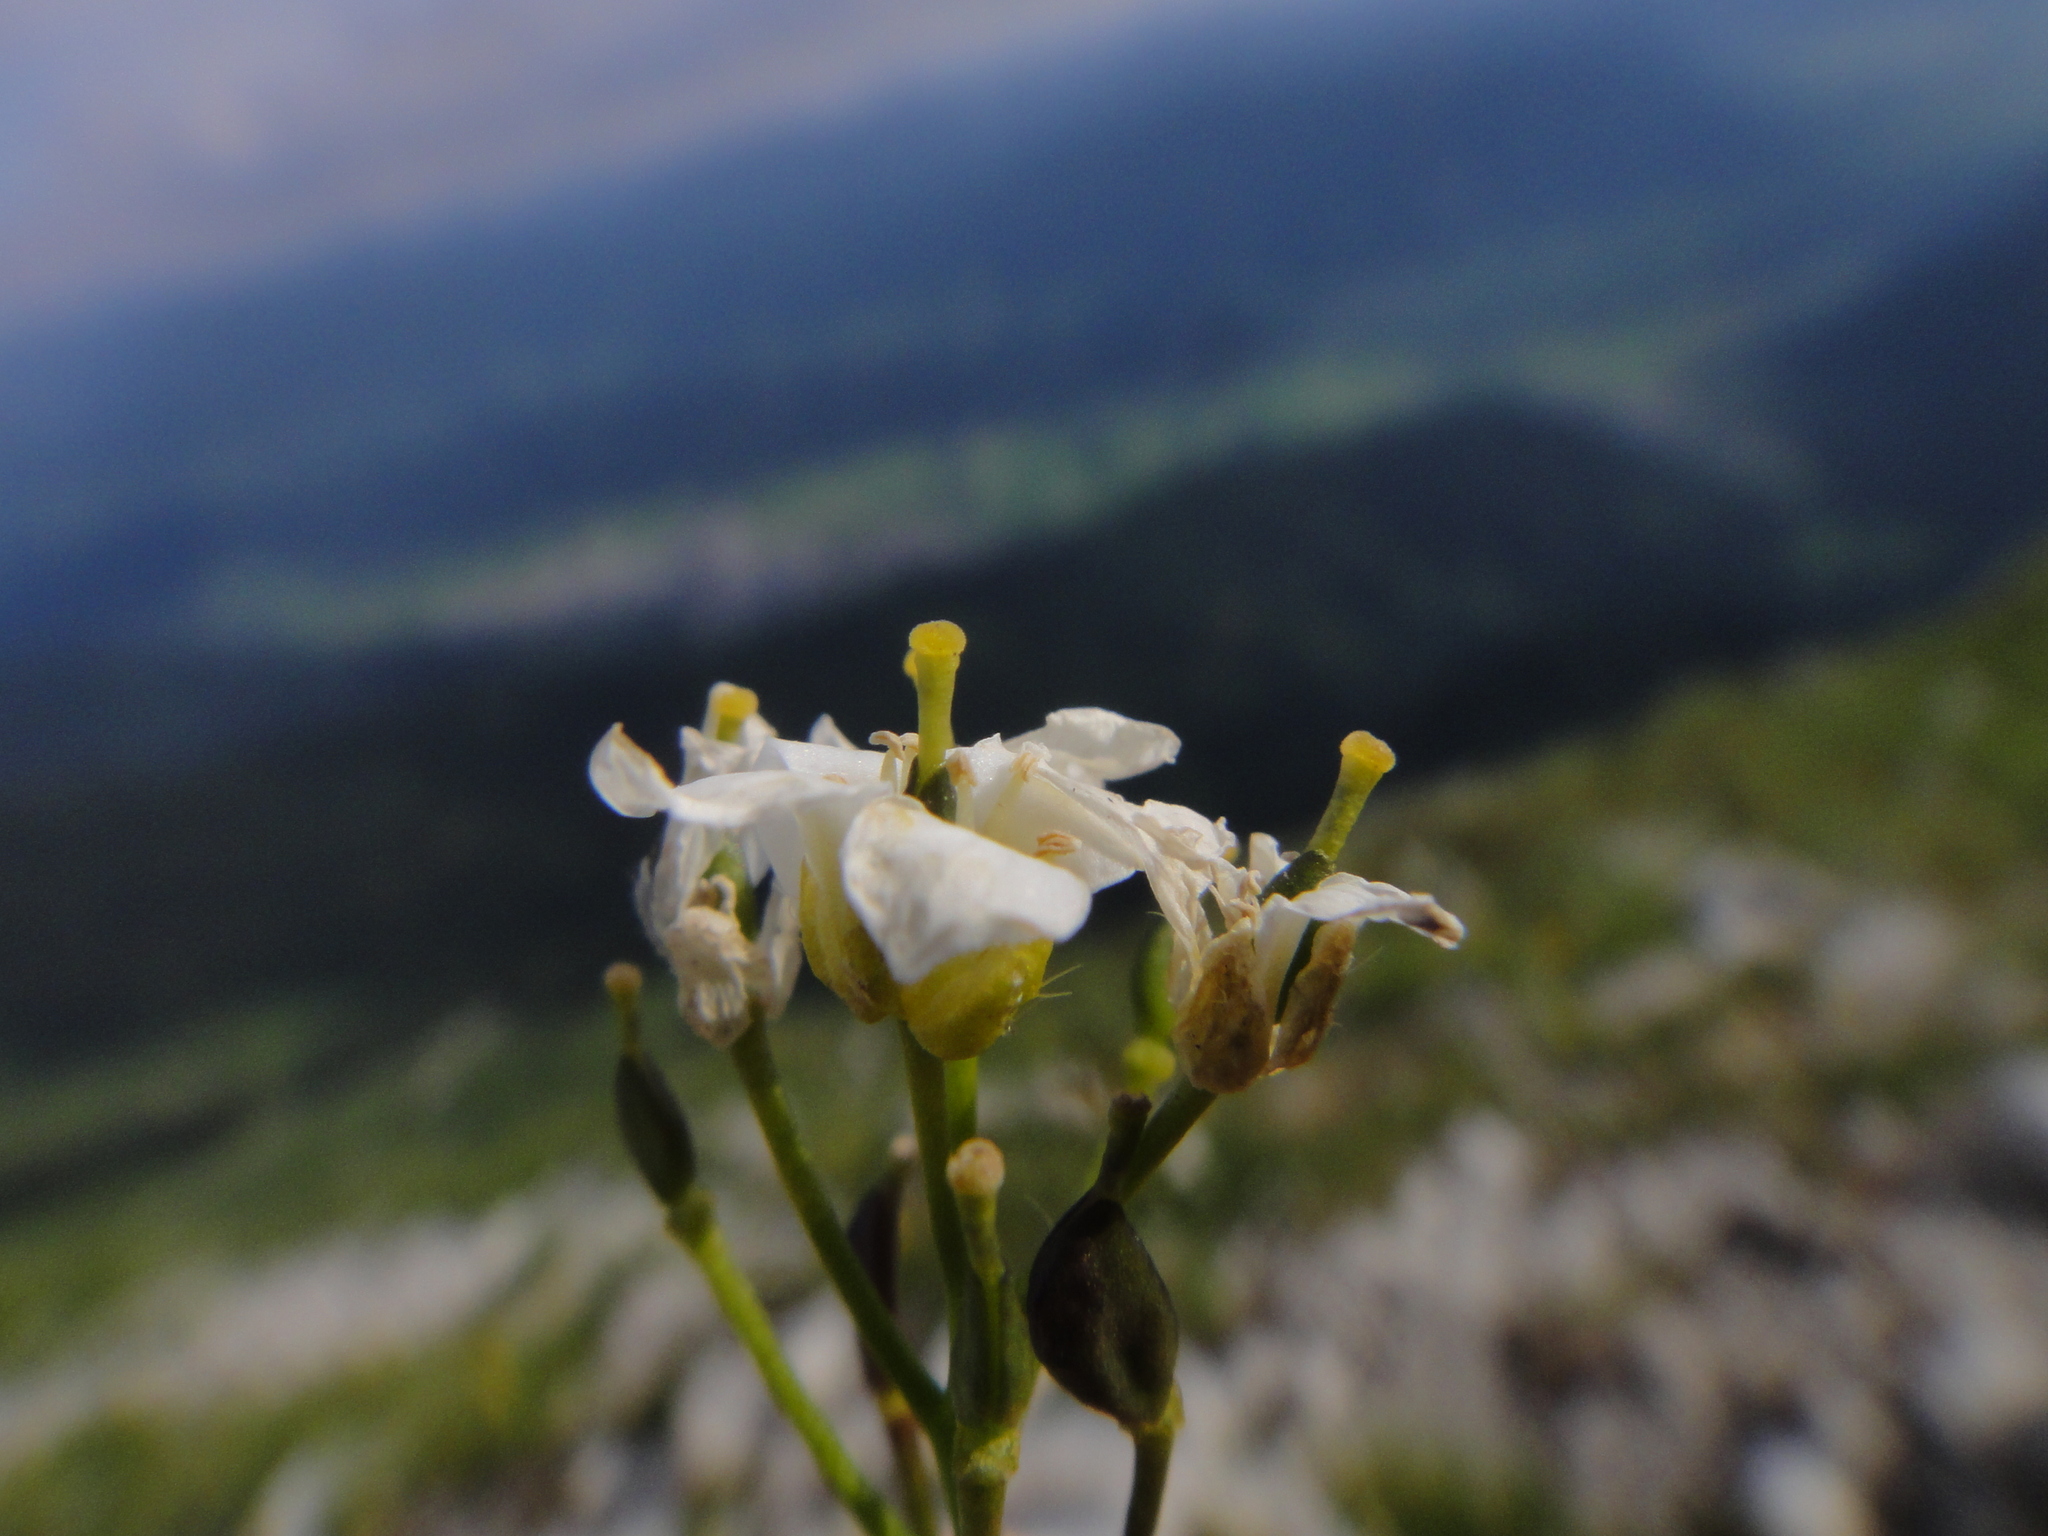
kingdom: Plantae
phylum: Tracheophyta
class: Magnoliopsida
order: Brassicales
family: Brassicaceae
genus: Draba
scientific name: Draba stellata
